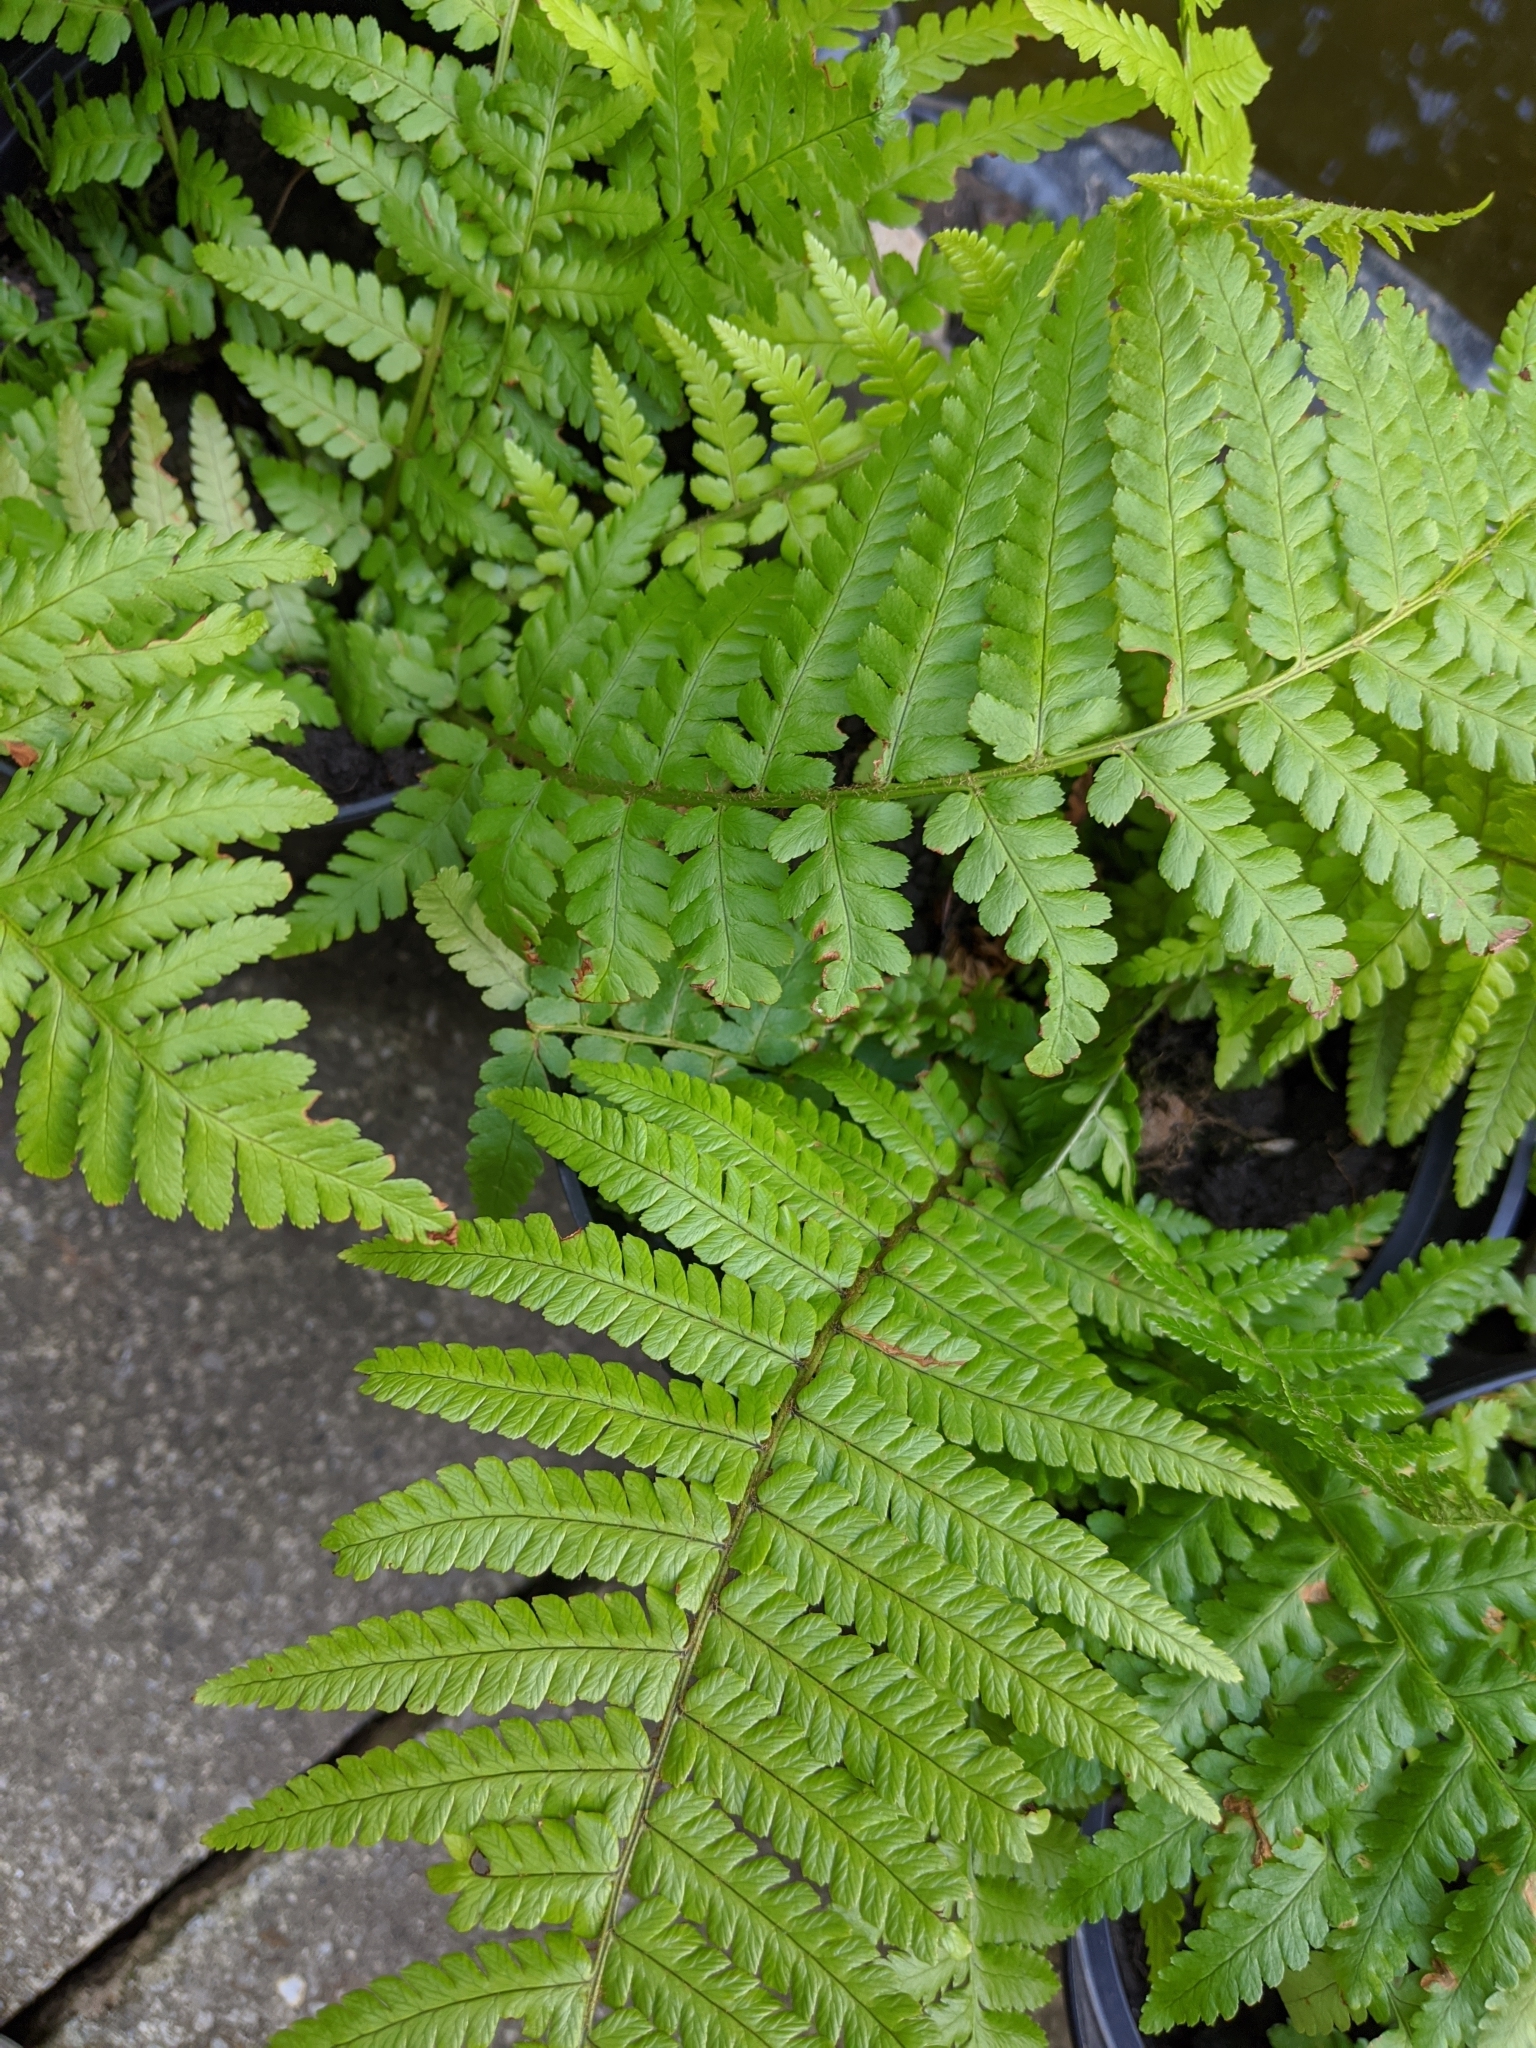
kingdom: Plantae
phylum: Tracheophyta
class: Polypodiopsida
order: Polypodiales
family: Dryopteridaceae
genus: Dryopteris
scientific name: Dryopteris filix-mas
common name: Male fern
